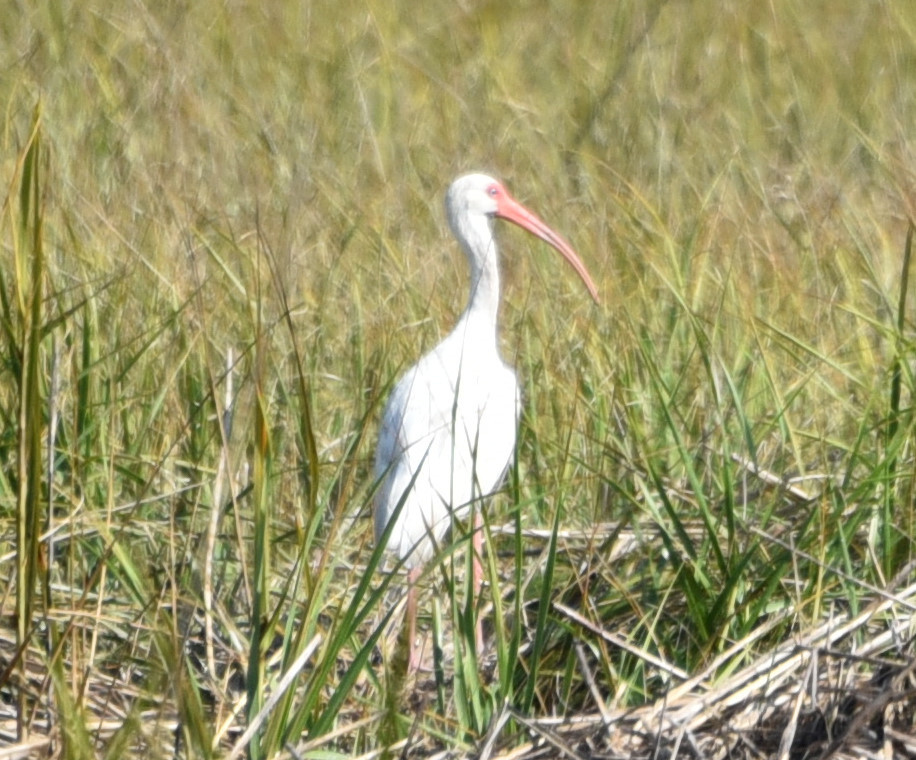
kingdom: Animalia
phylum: Chordata
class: Aves
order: Pelecaniformes
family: Threskiornithidae
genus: Eudocimus
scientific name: Eudocimus albus
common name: White ibis
